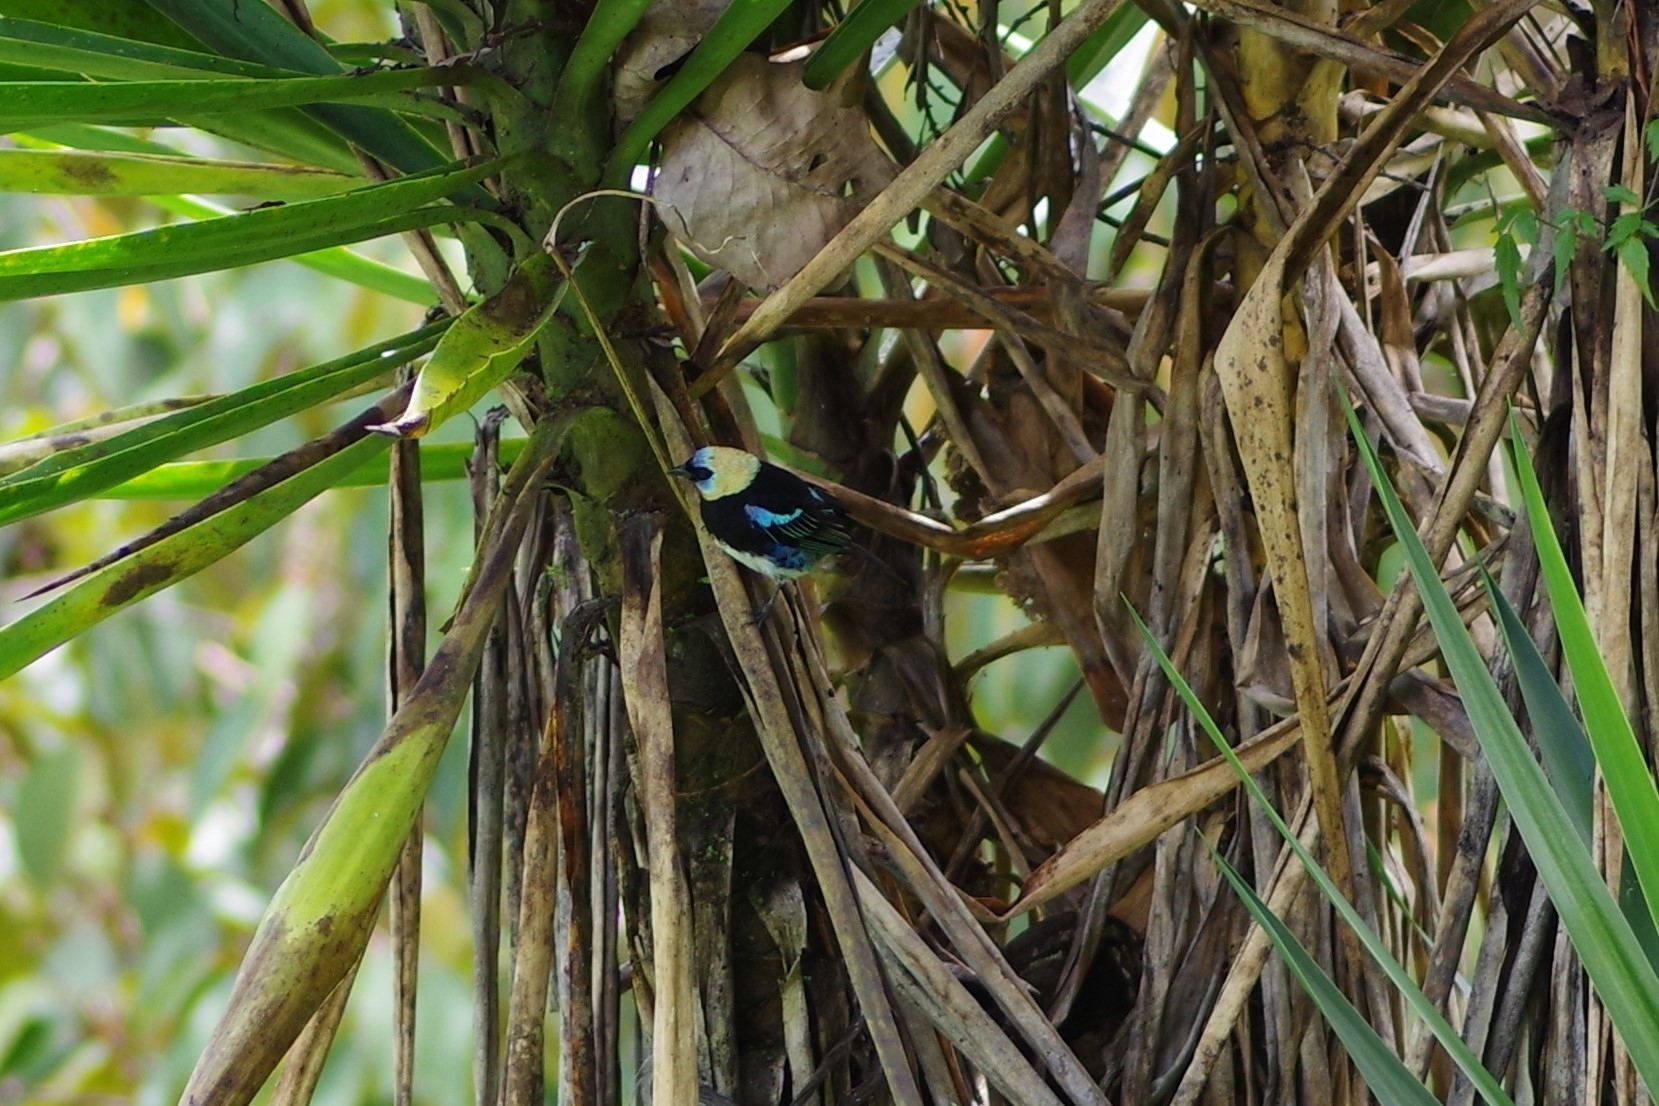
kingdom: Animalia
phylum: Chordata
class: Aves
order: Passeriformes
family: Thraupidae
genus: Stilpnia
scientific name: Stilpnia larvata
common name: Golden-hooded tanager
